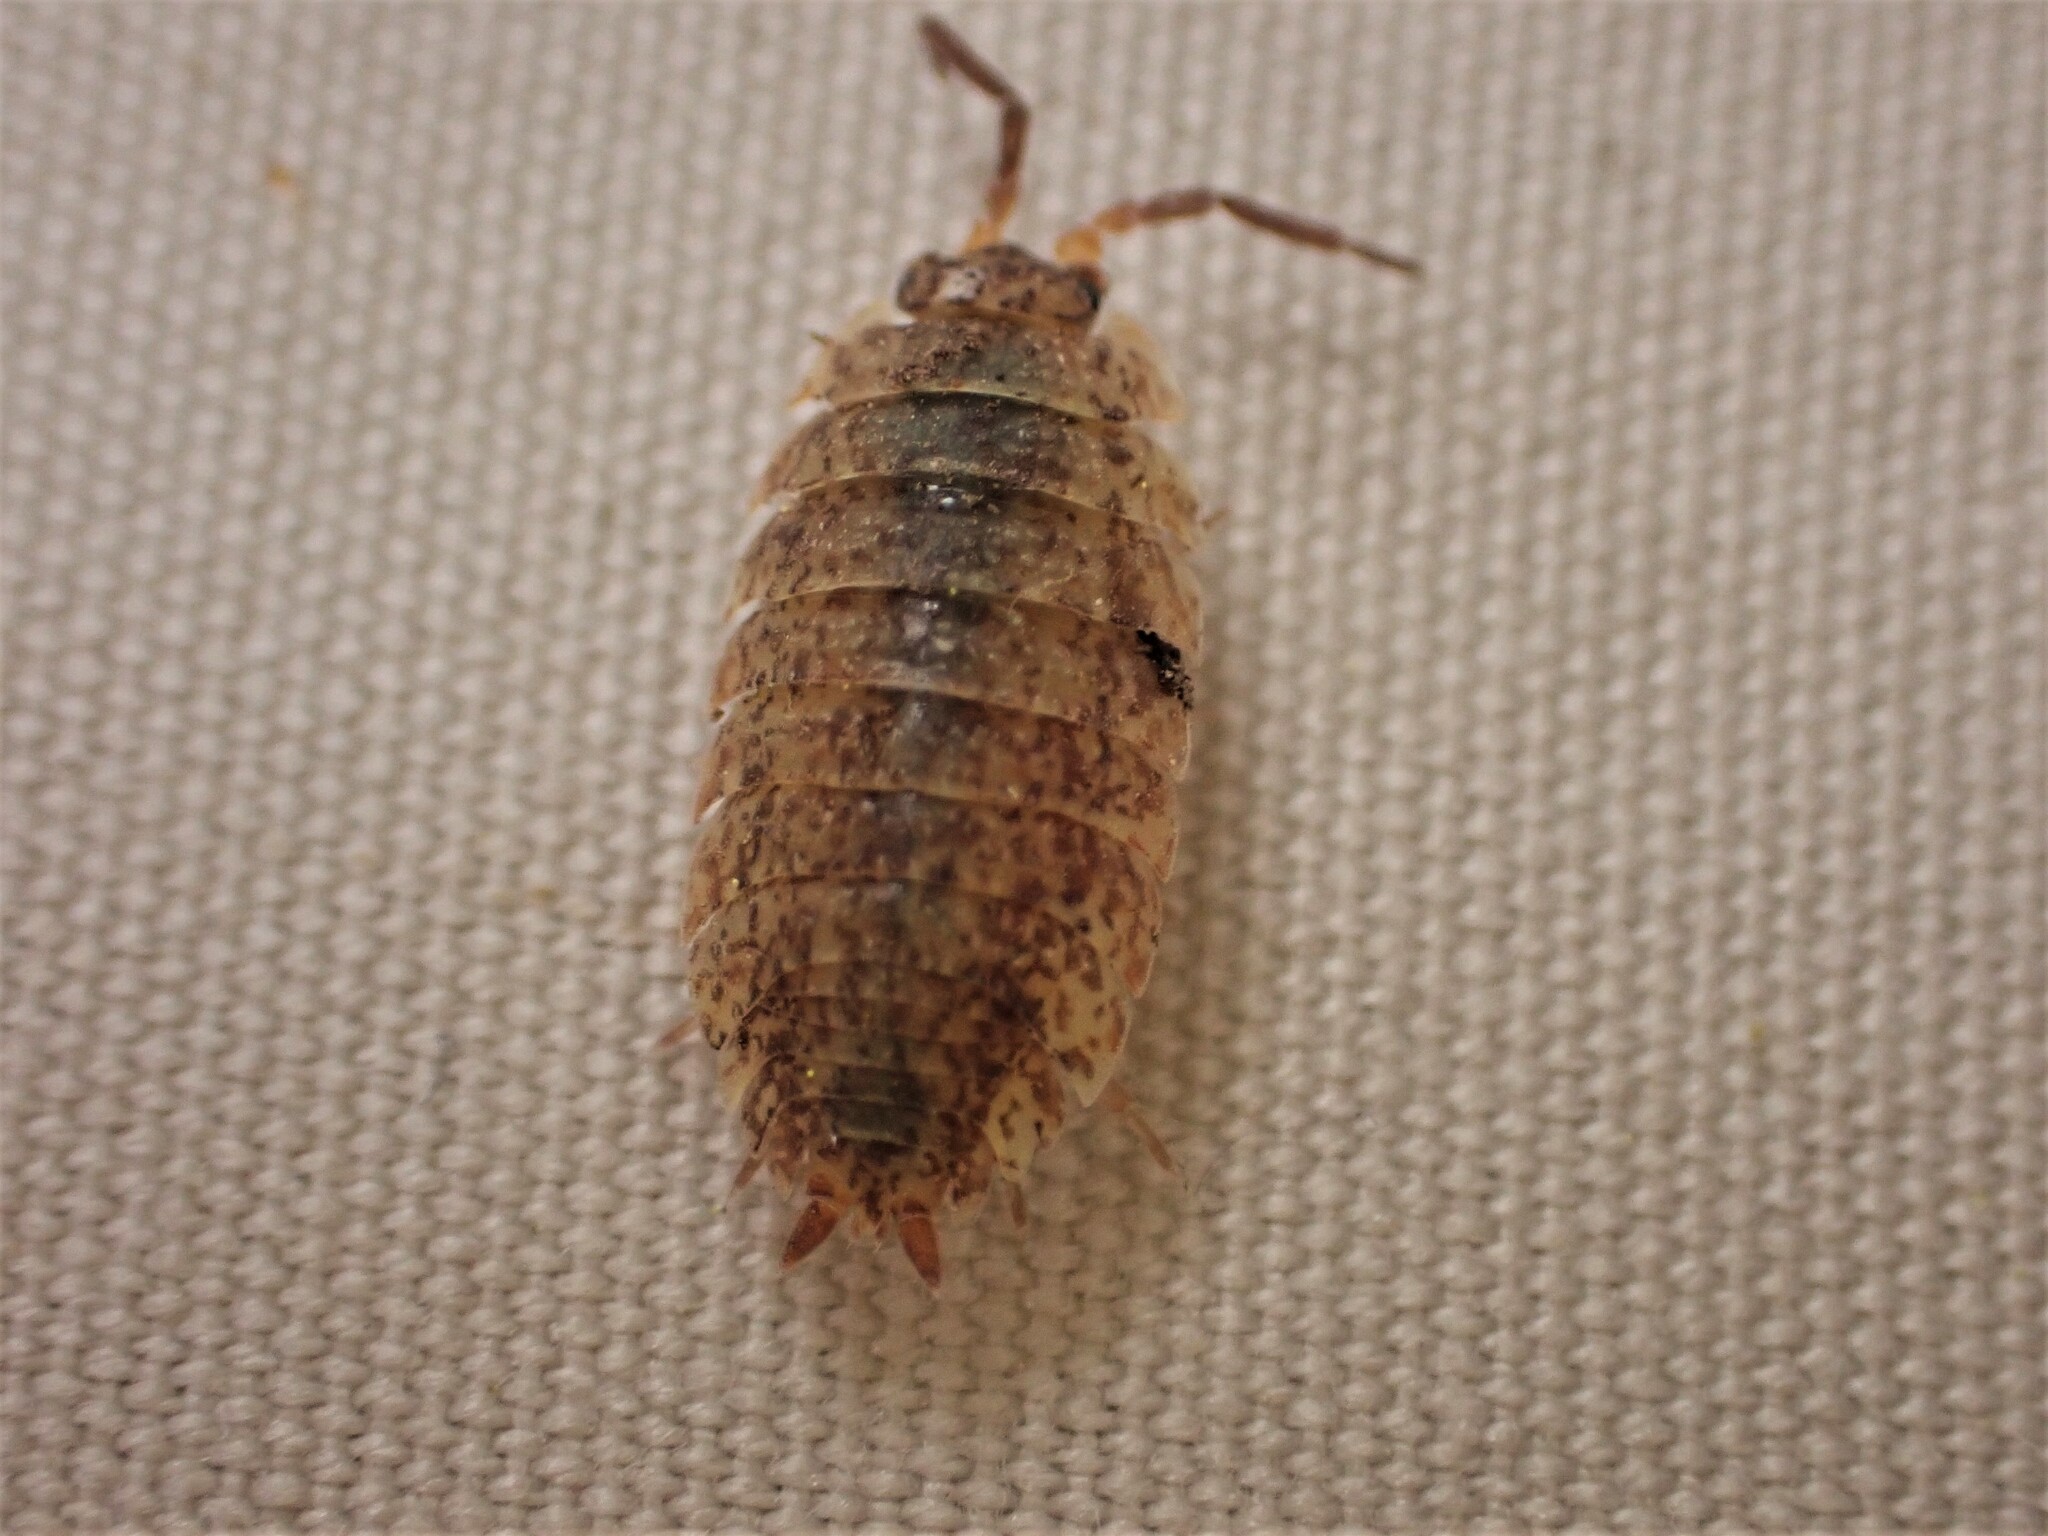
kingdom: Animalia
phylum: Arthropoda
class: Malacostraca
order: Isopoda
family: Porcellionidae
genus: Porcellio
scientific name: Porcellio scaber
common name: Common rough woodlouse
